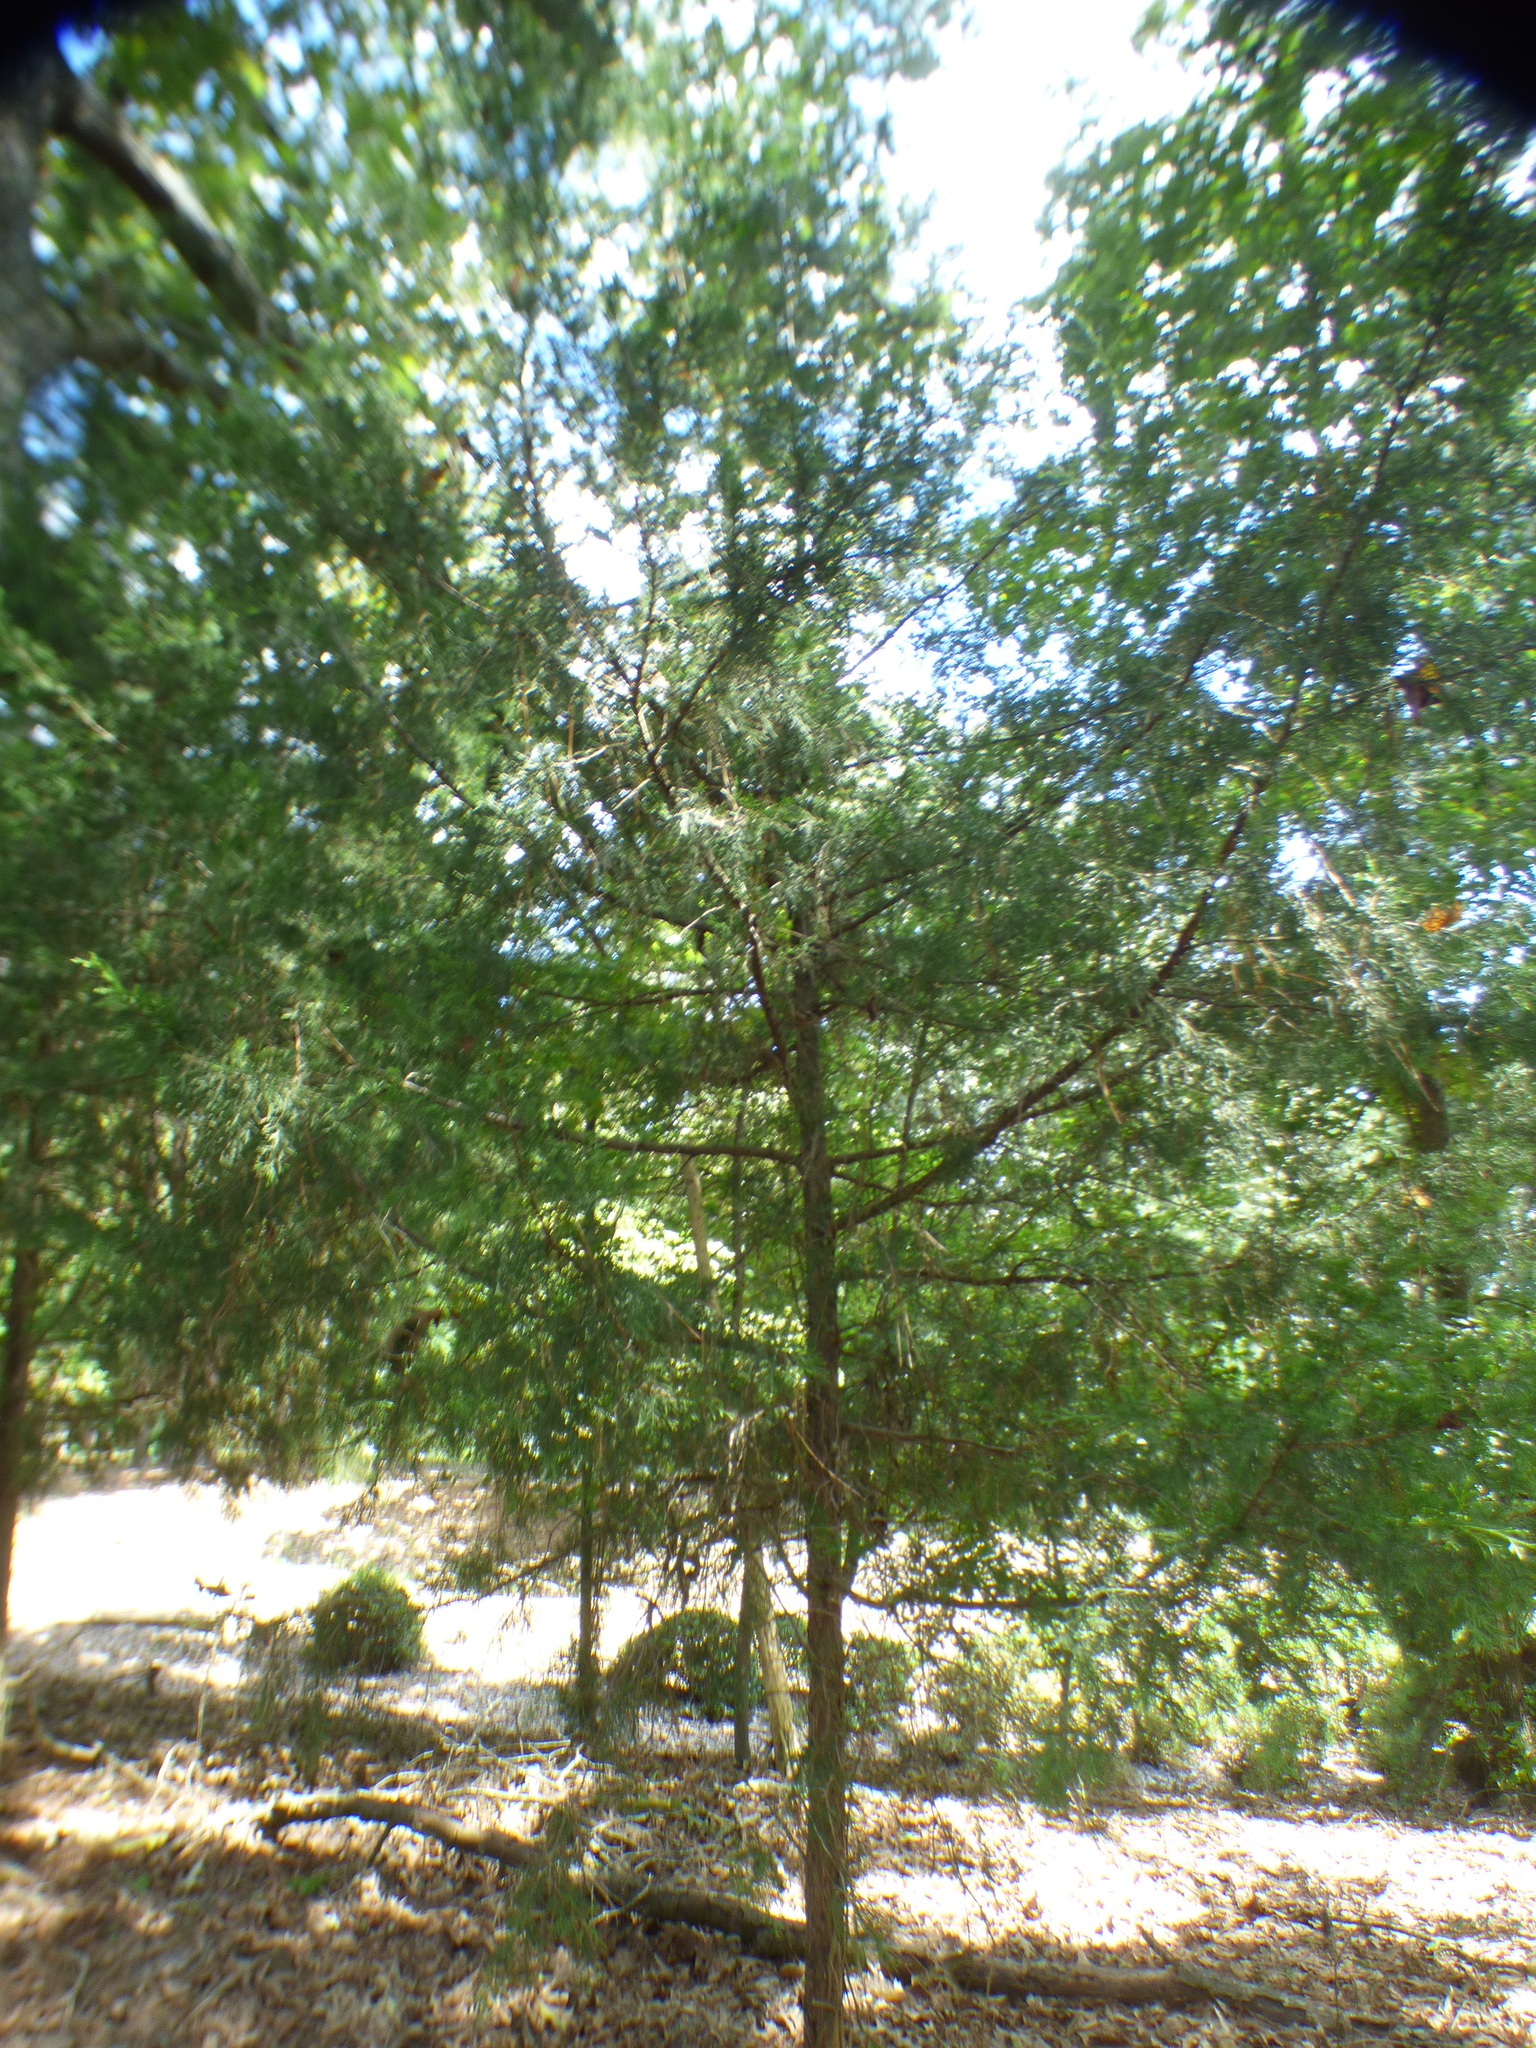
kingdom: Plantae
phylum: Tracheophyta
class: Pinopsida
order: Pinales
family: Cupressaceae
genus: Juniperus
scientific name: Juniperus virginiana
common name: Red juniper
